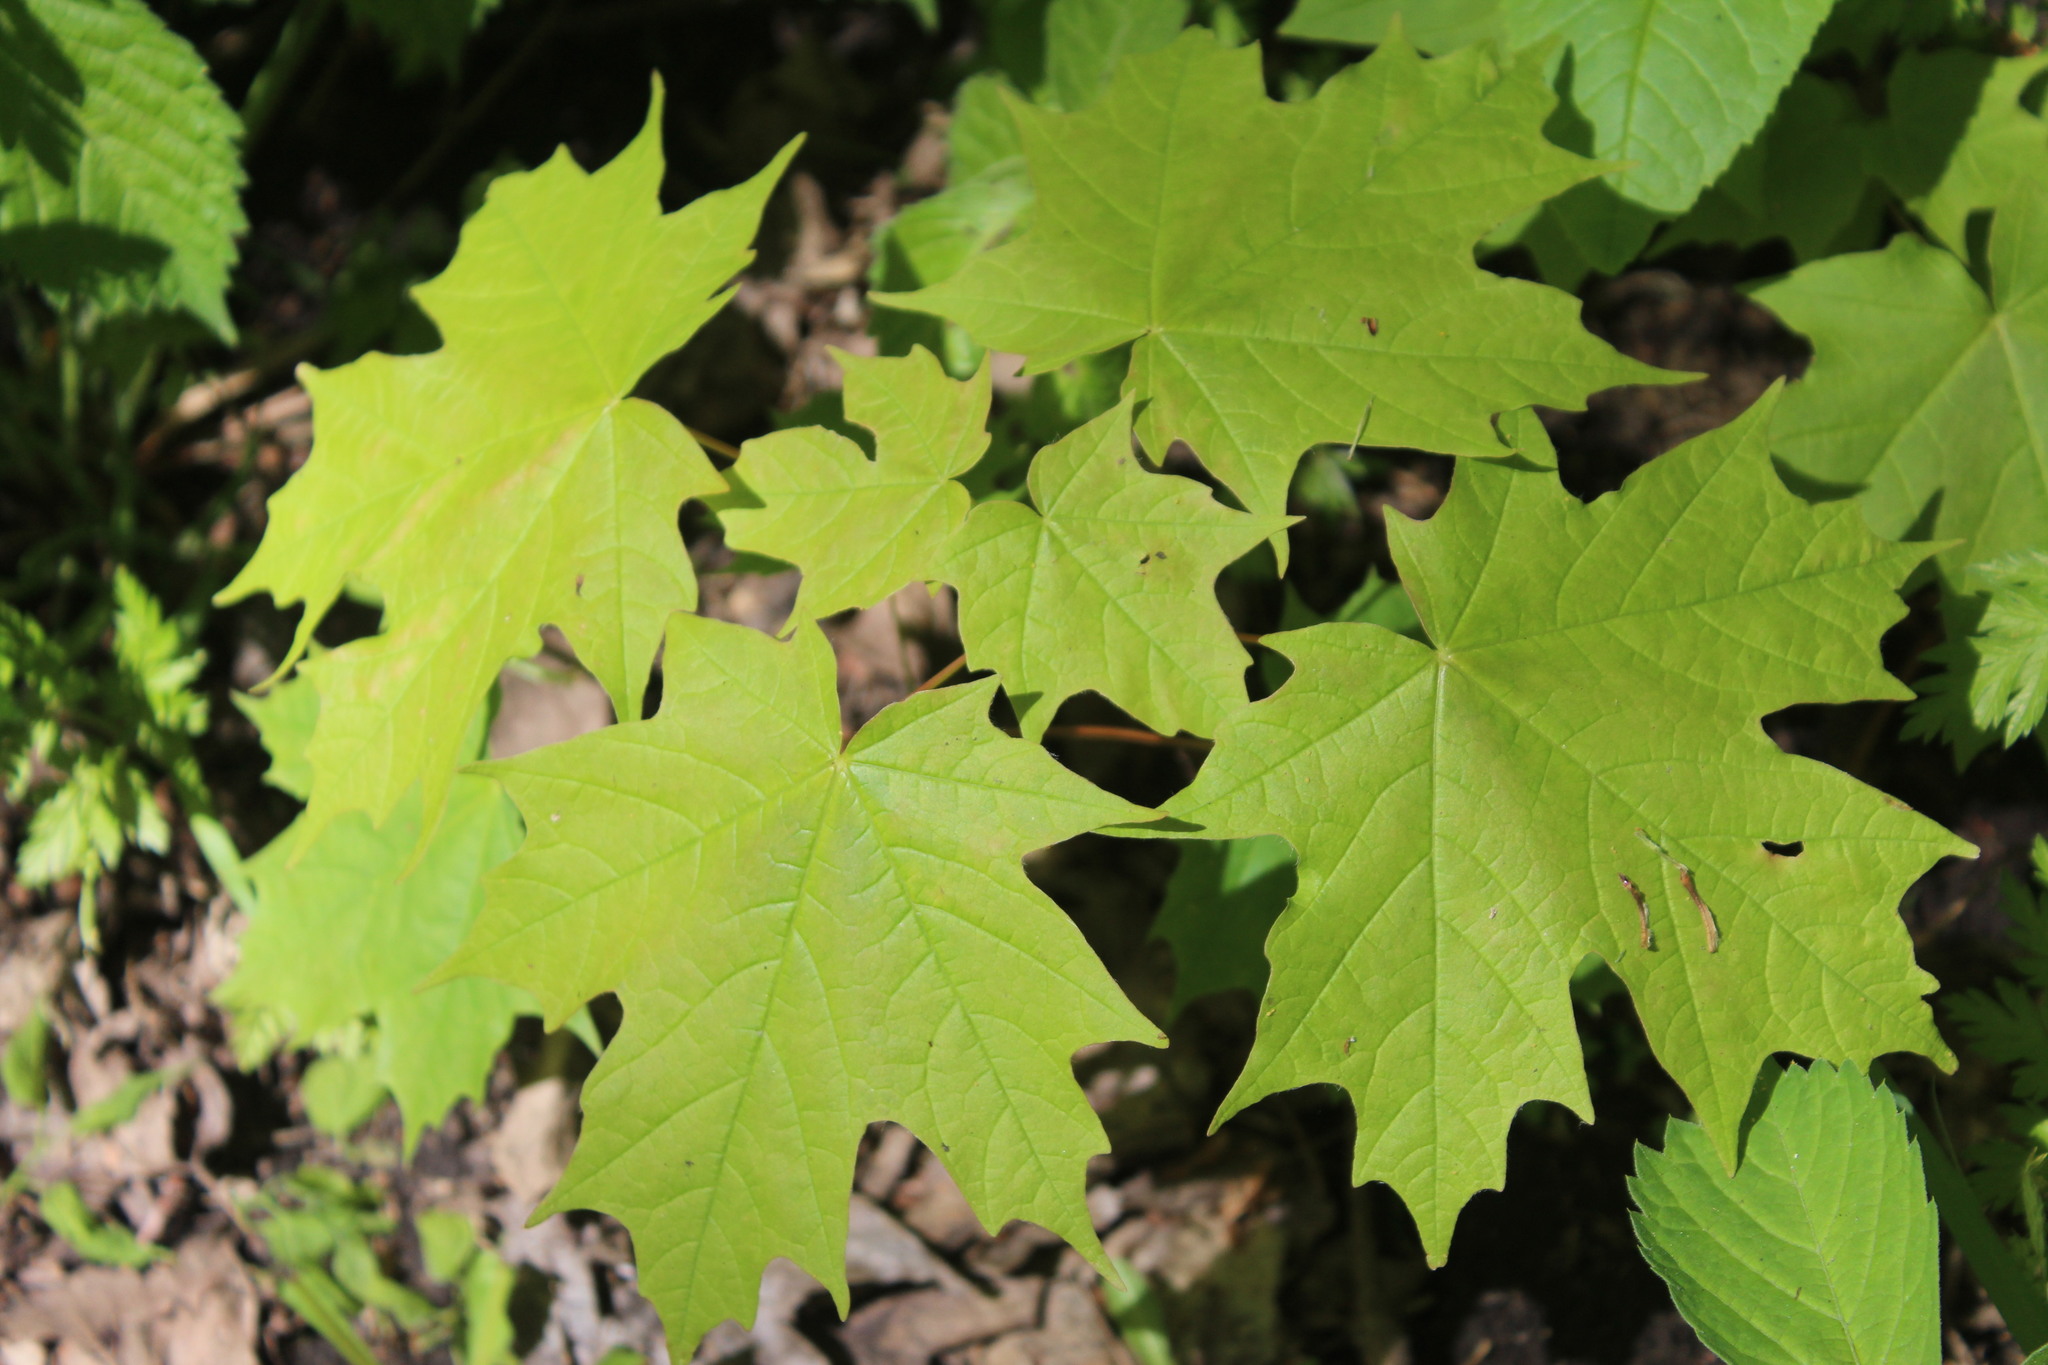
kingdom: Plantae
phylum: Tracheophyta
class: Magnoliopsida
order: Sapindales
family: Sapindaceae
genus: Acer
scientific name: Acer saccharum
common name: Sugar maple
